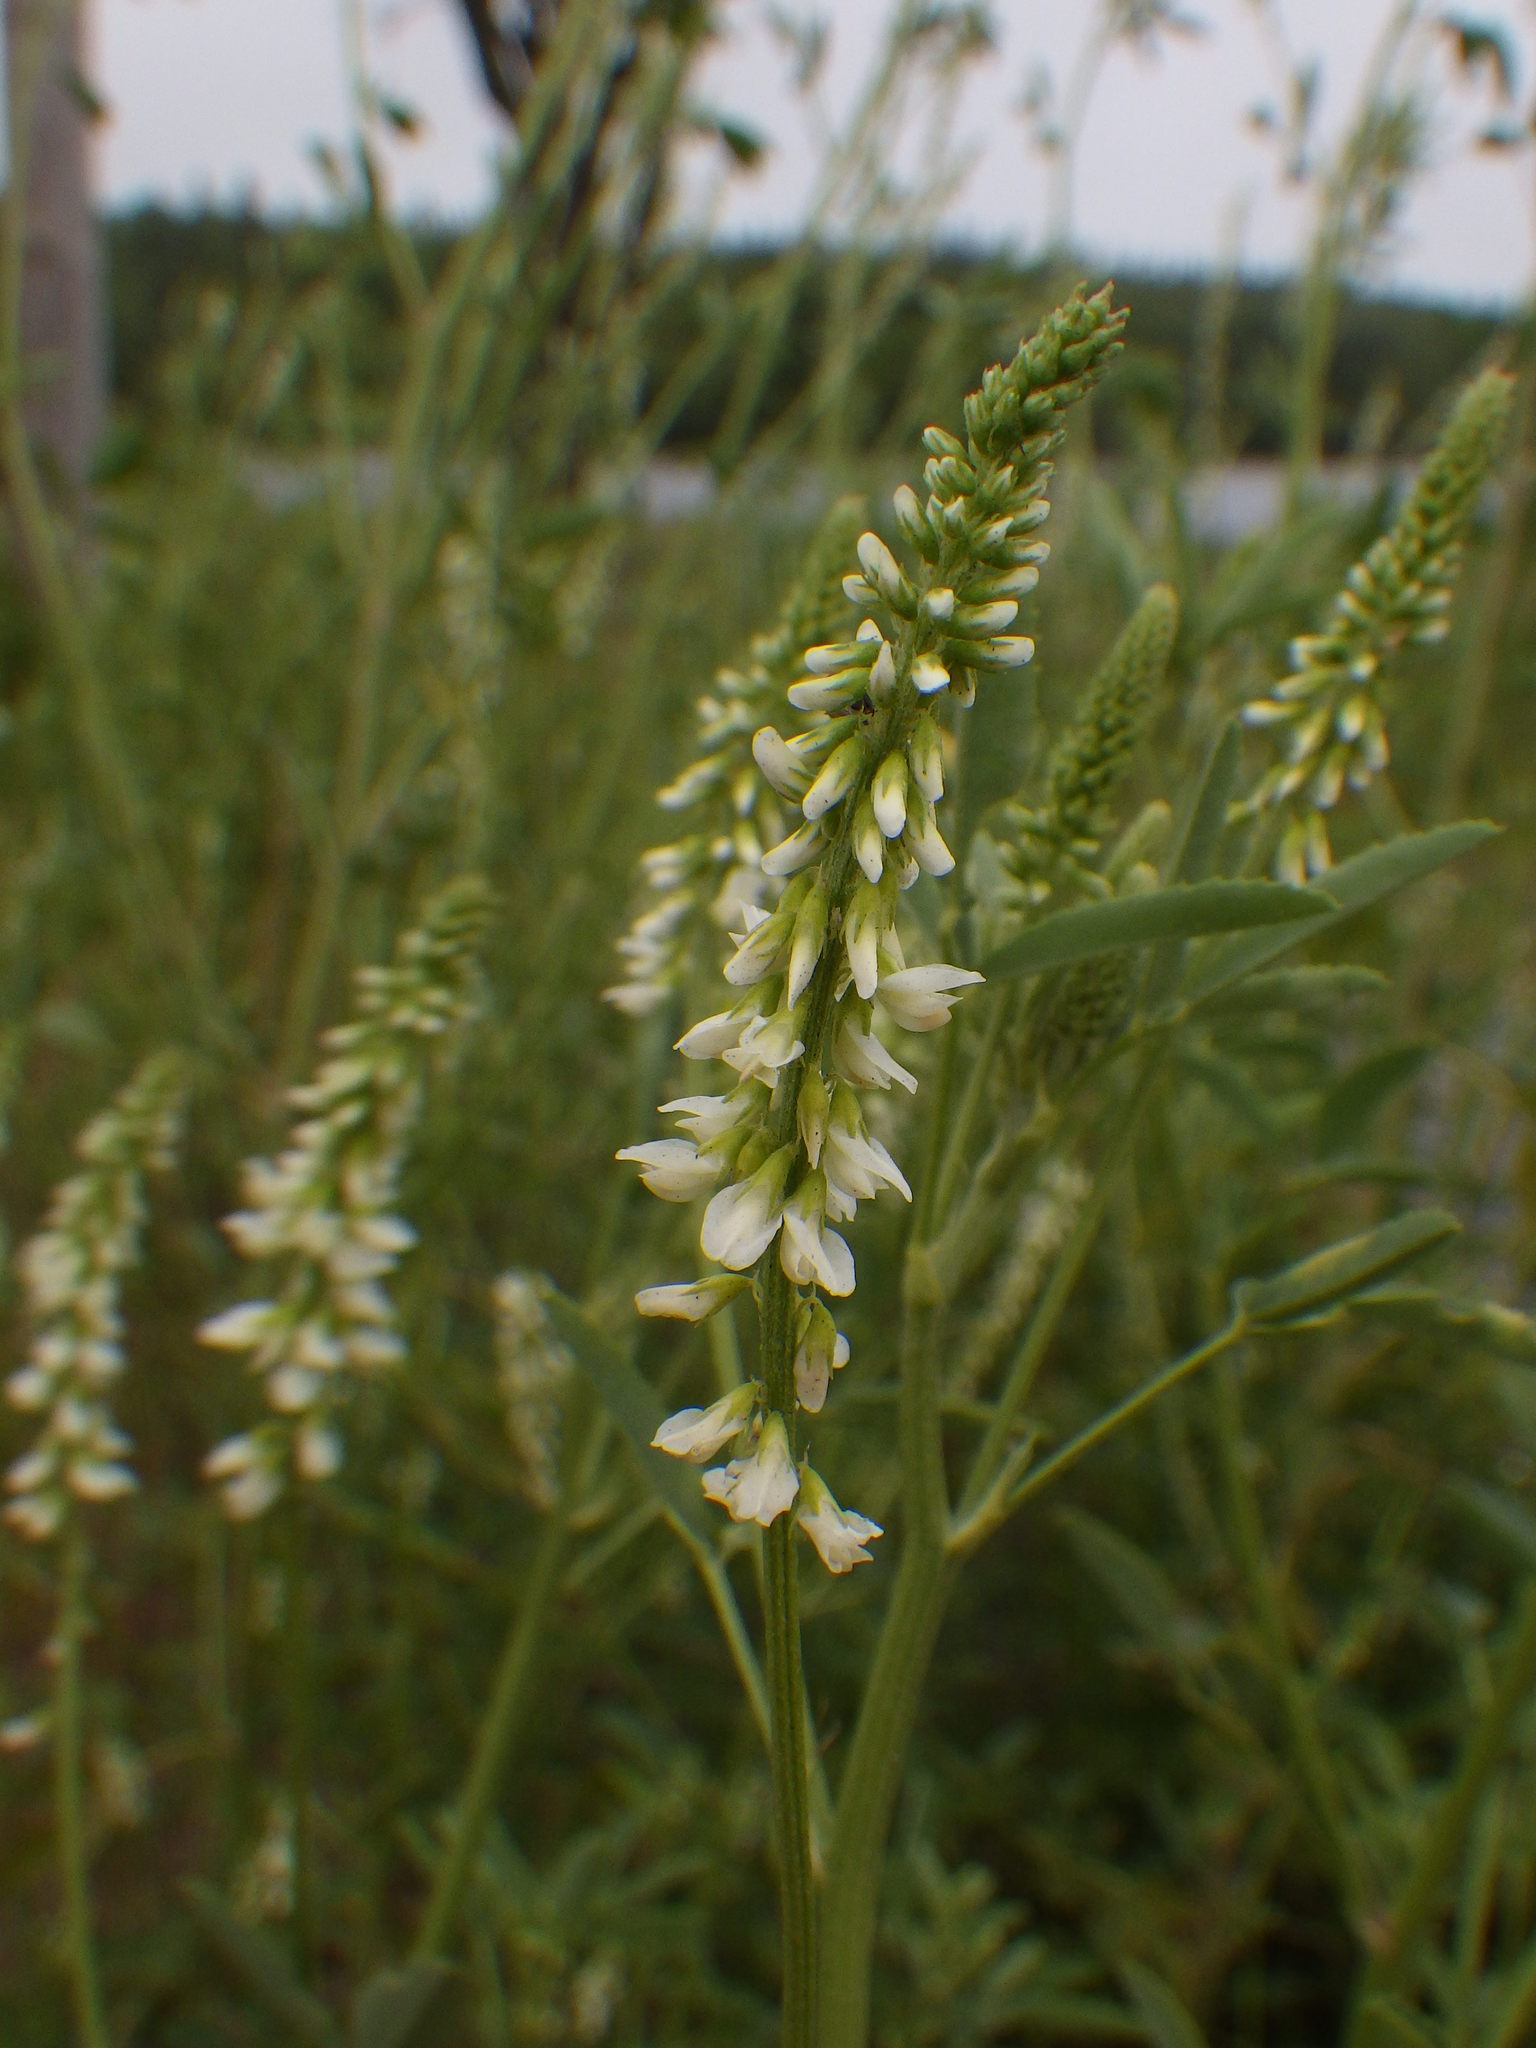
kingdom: Plantae
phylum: Tracheophyta
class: Magnoliopsida
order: Fabales
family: Fabaceae
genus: Melilotus
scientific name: Melilotus albus
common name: White melilot
